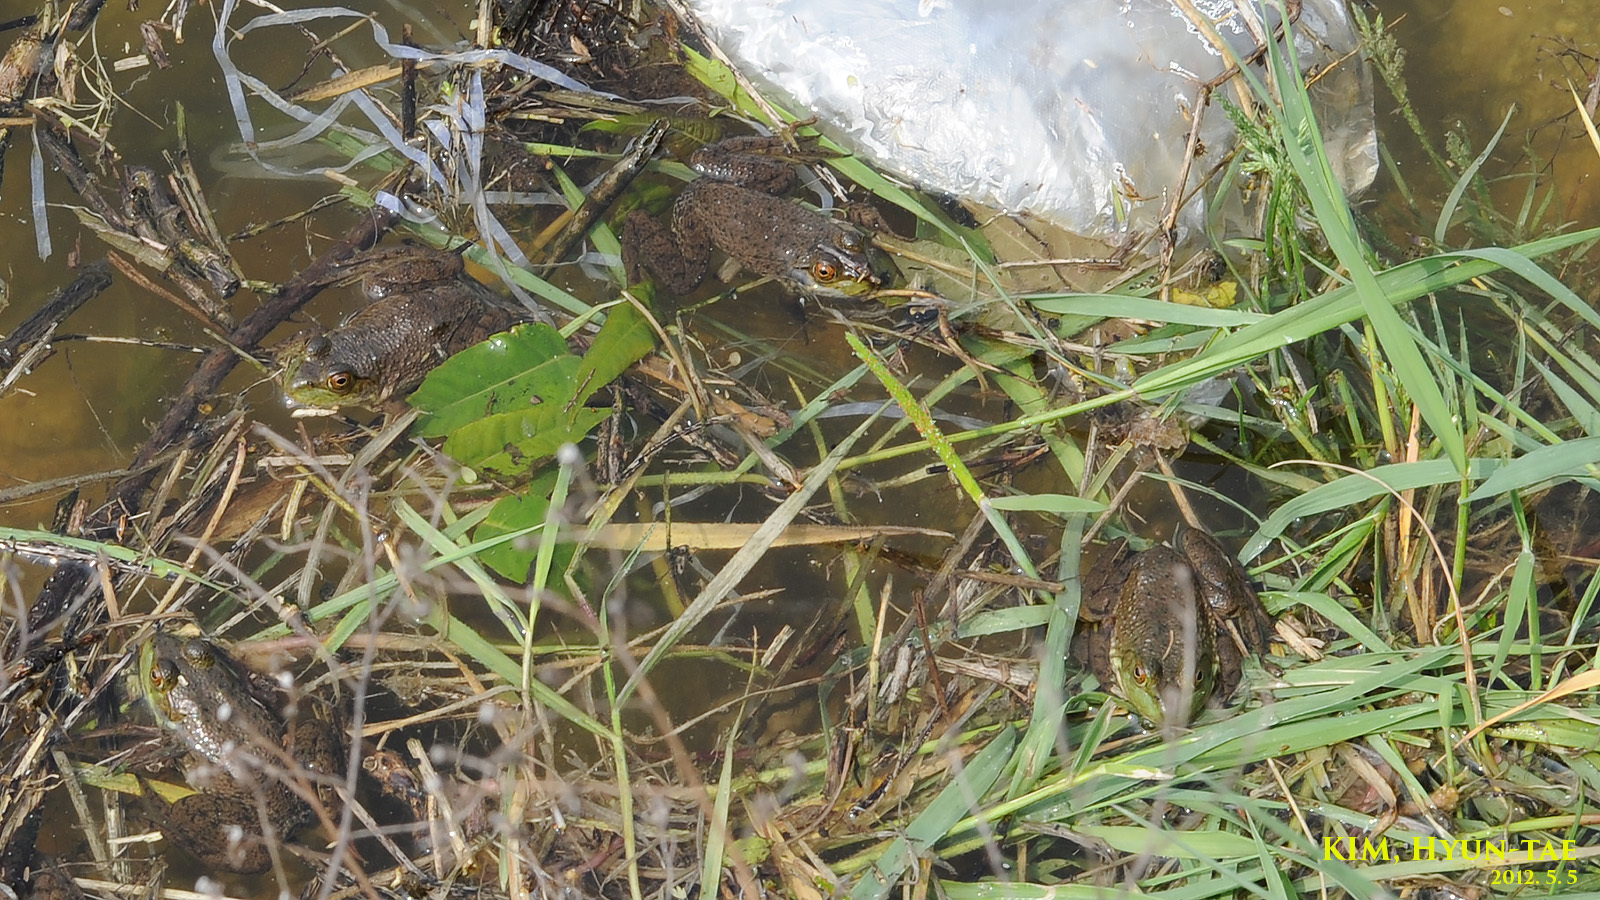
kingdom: Animalia
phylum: Chordata
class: Amphibia
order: Anura
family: Ranidae
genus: Lithobates
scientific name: Lithobates catesbeianus
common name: American bullfrog
